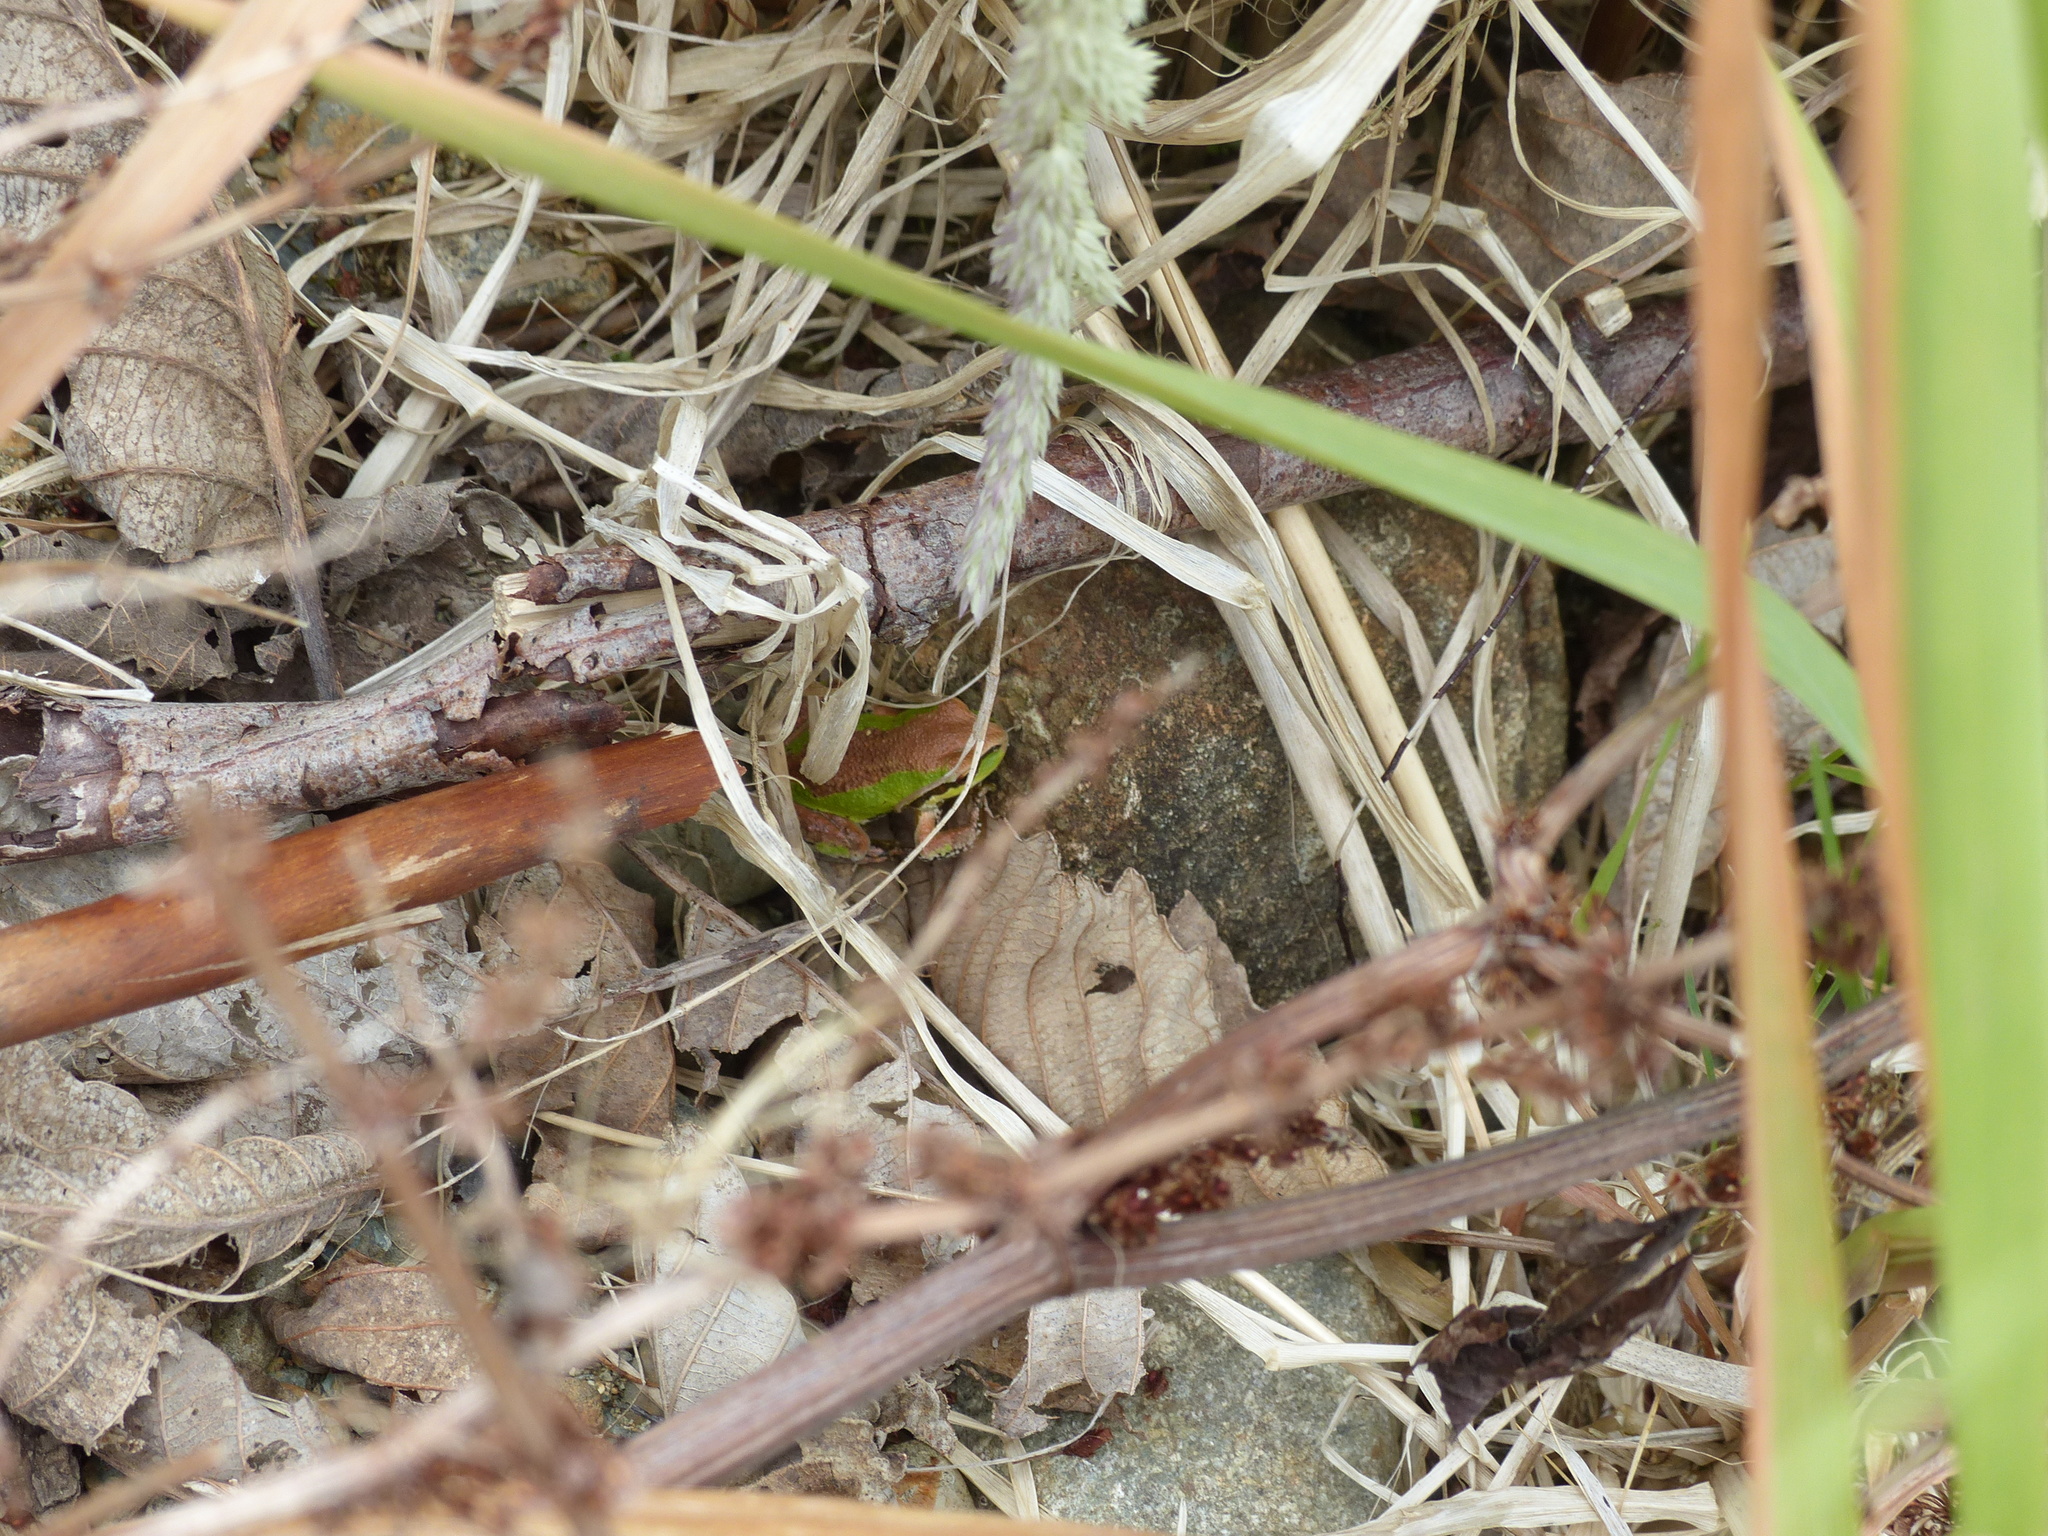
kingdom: Animalia
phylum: Chordata
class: Amphibia
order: Anura
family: Hylidae
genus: Pseudacris
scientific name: Pseudacris regilla
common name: Pacific chorus frog
